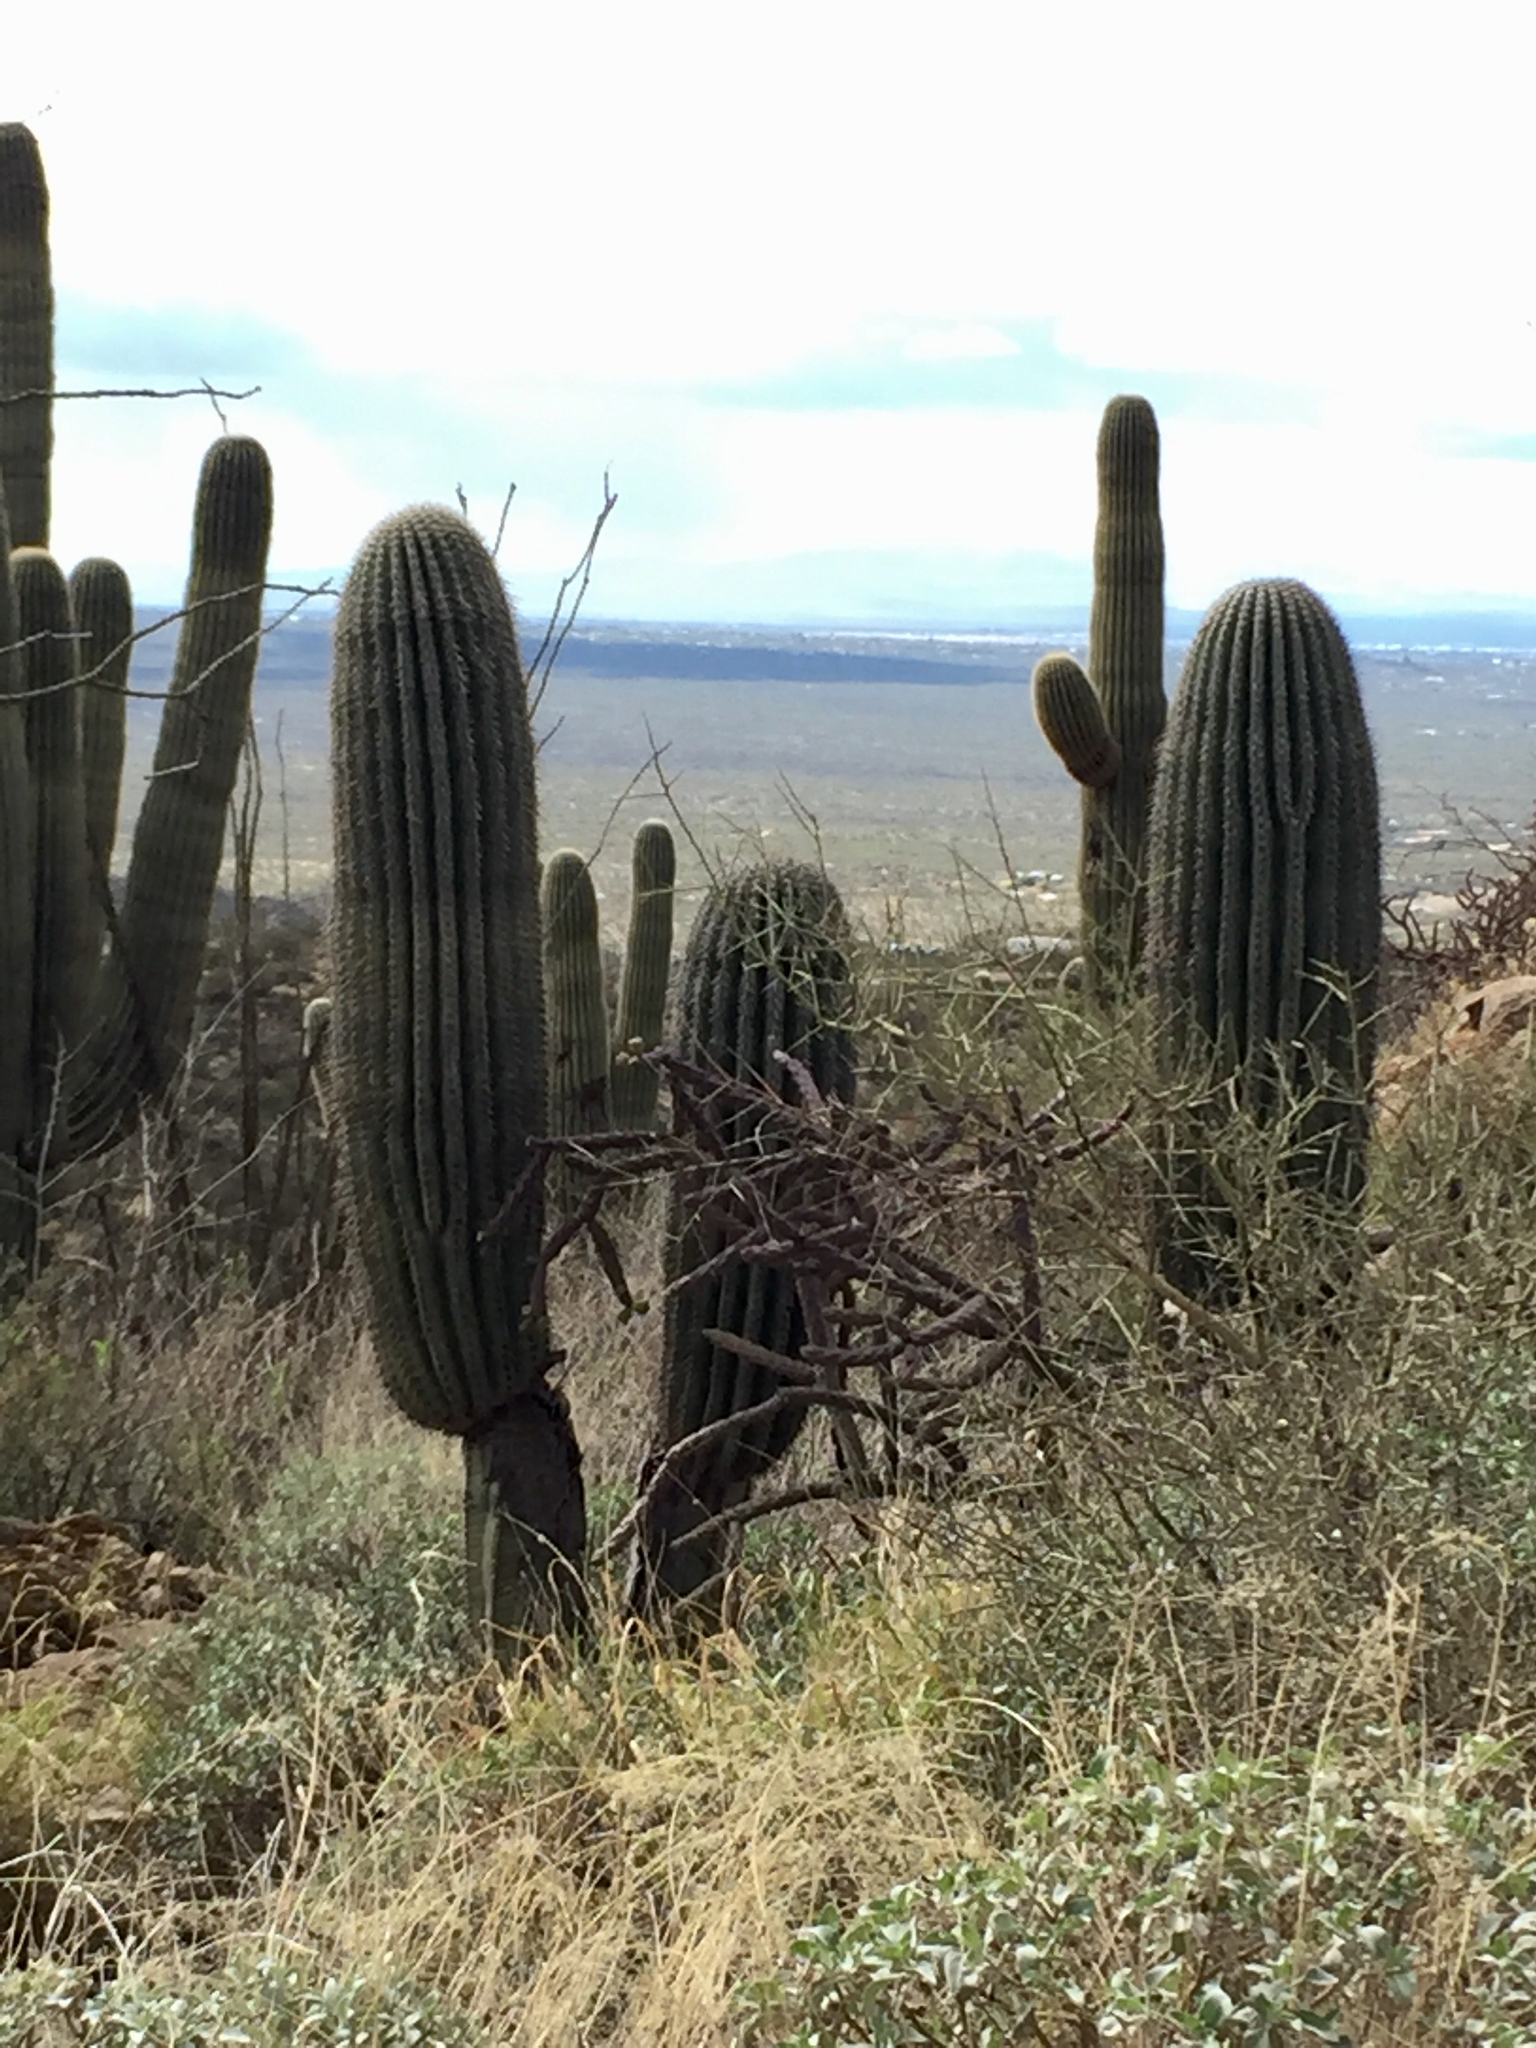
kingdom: Plantae
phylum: Tracheophyta
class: Magnoliopsida
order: Caryophyllales
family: Cactaceae
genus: Carnegiea
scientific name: Carnegiea gigantea
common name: Saguaro
